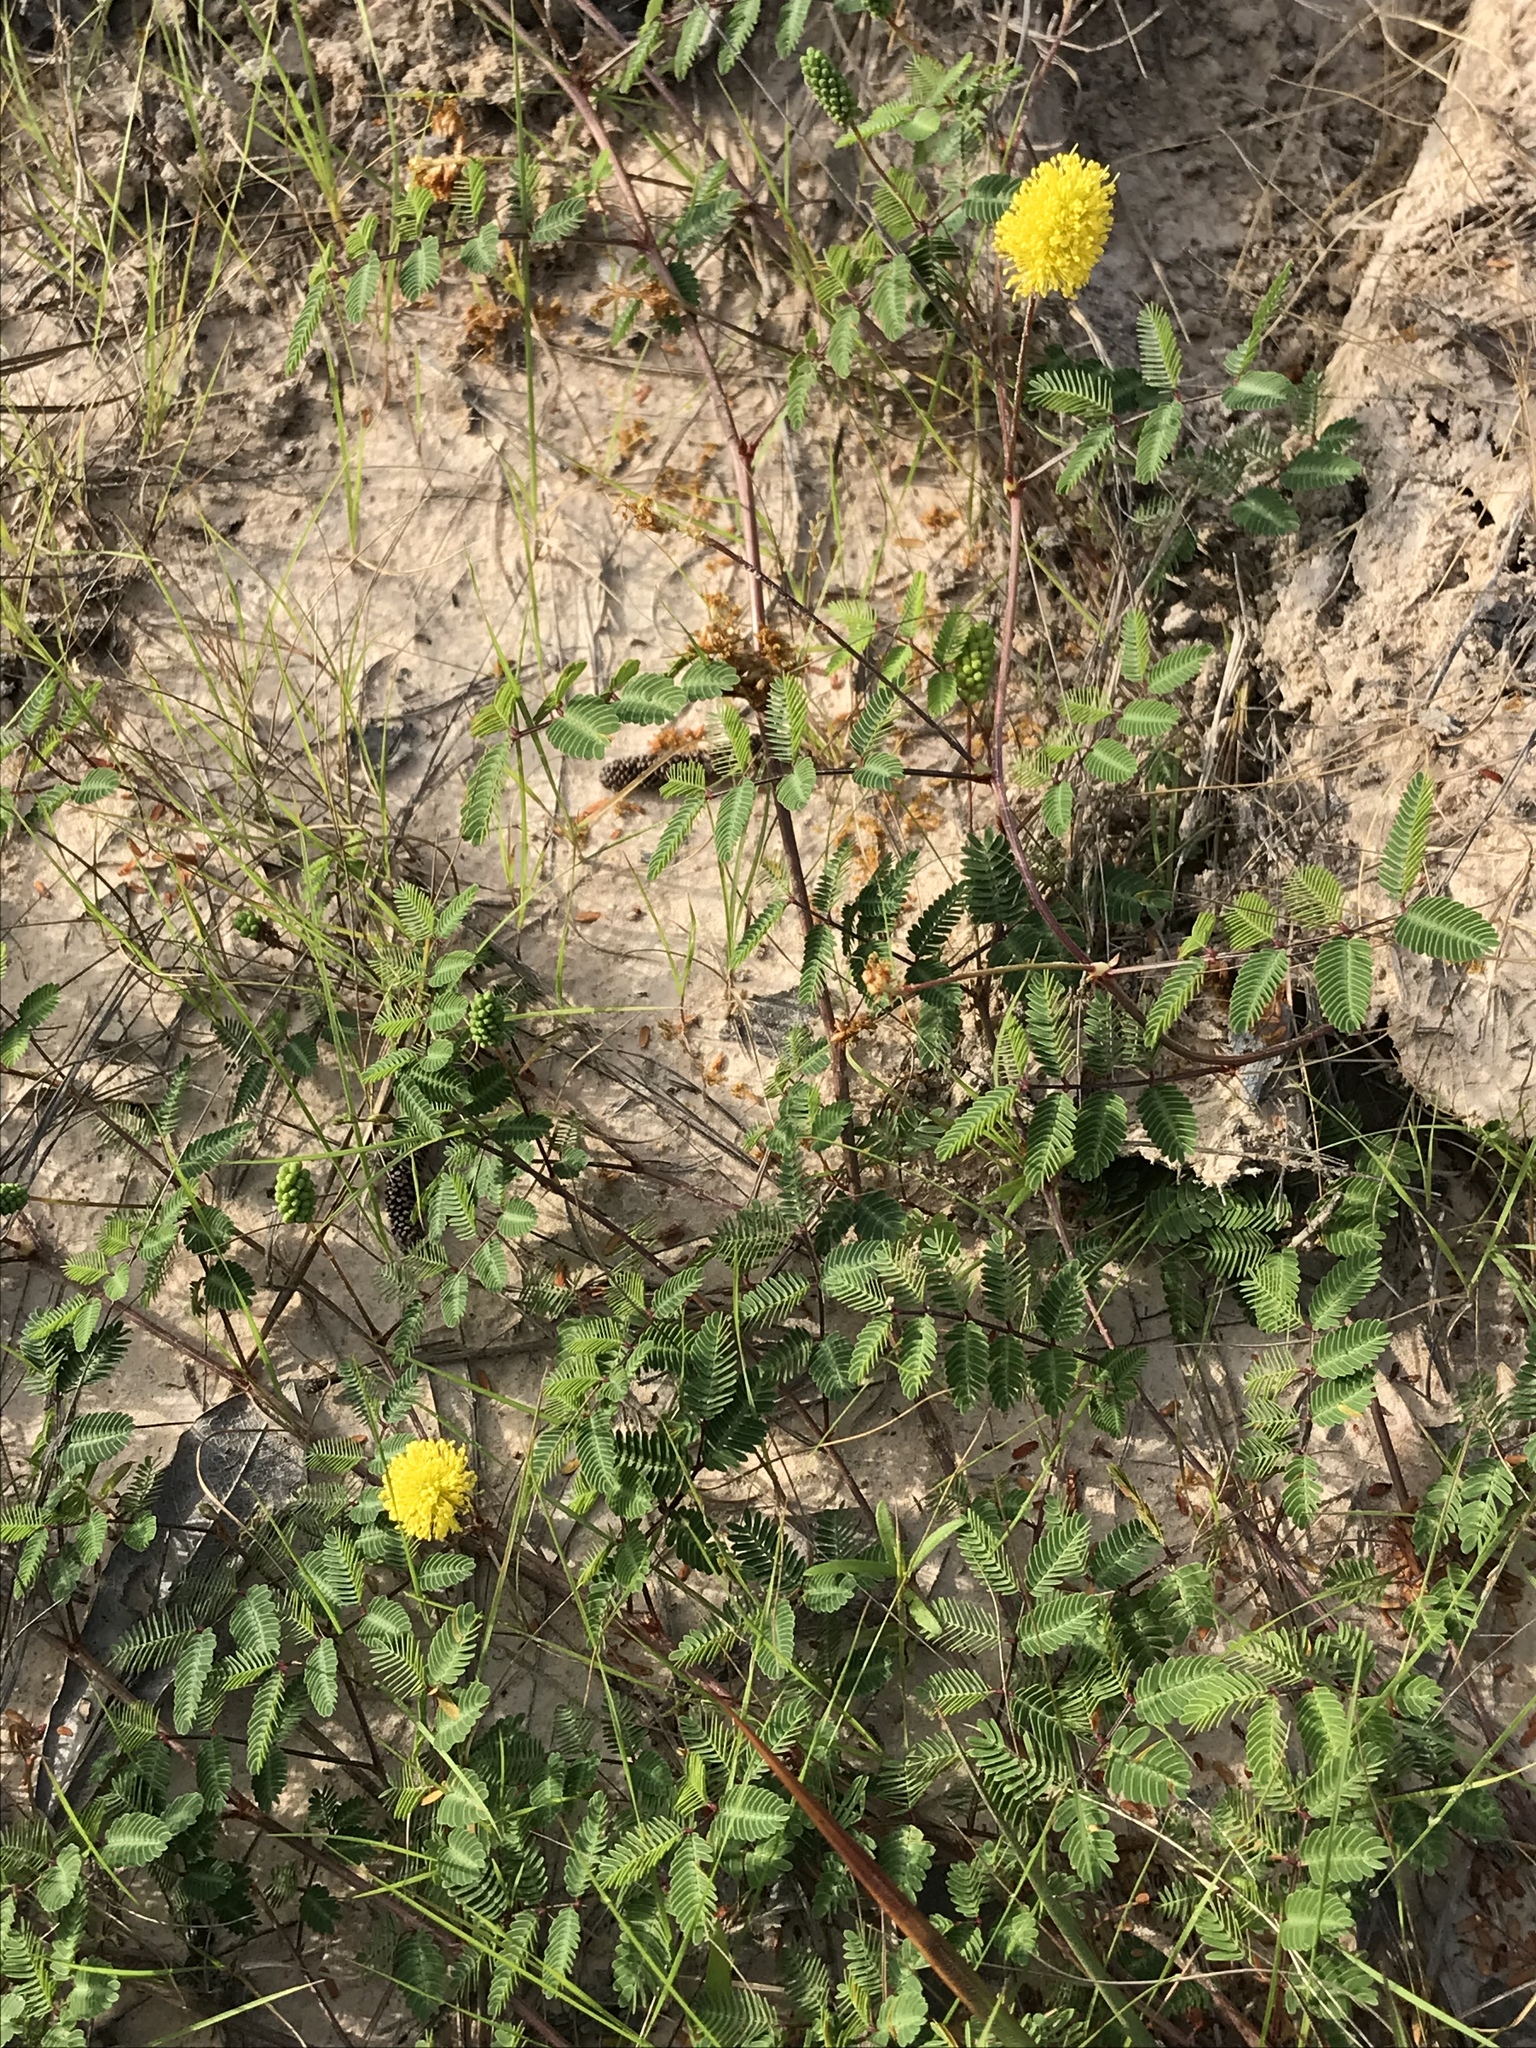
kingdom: Plantae
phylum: Tracheophyta
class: Magnoliopsida
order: Fabales
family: Fabaceae
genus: Neptunia
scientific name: Neptunia lutea
